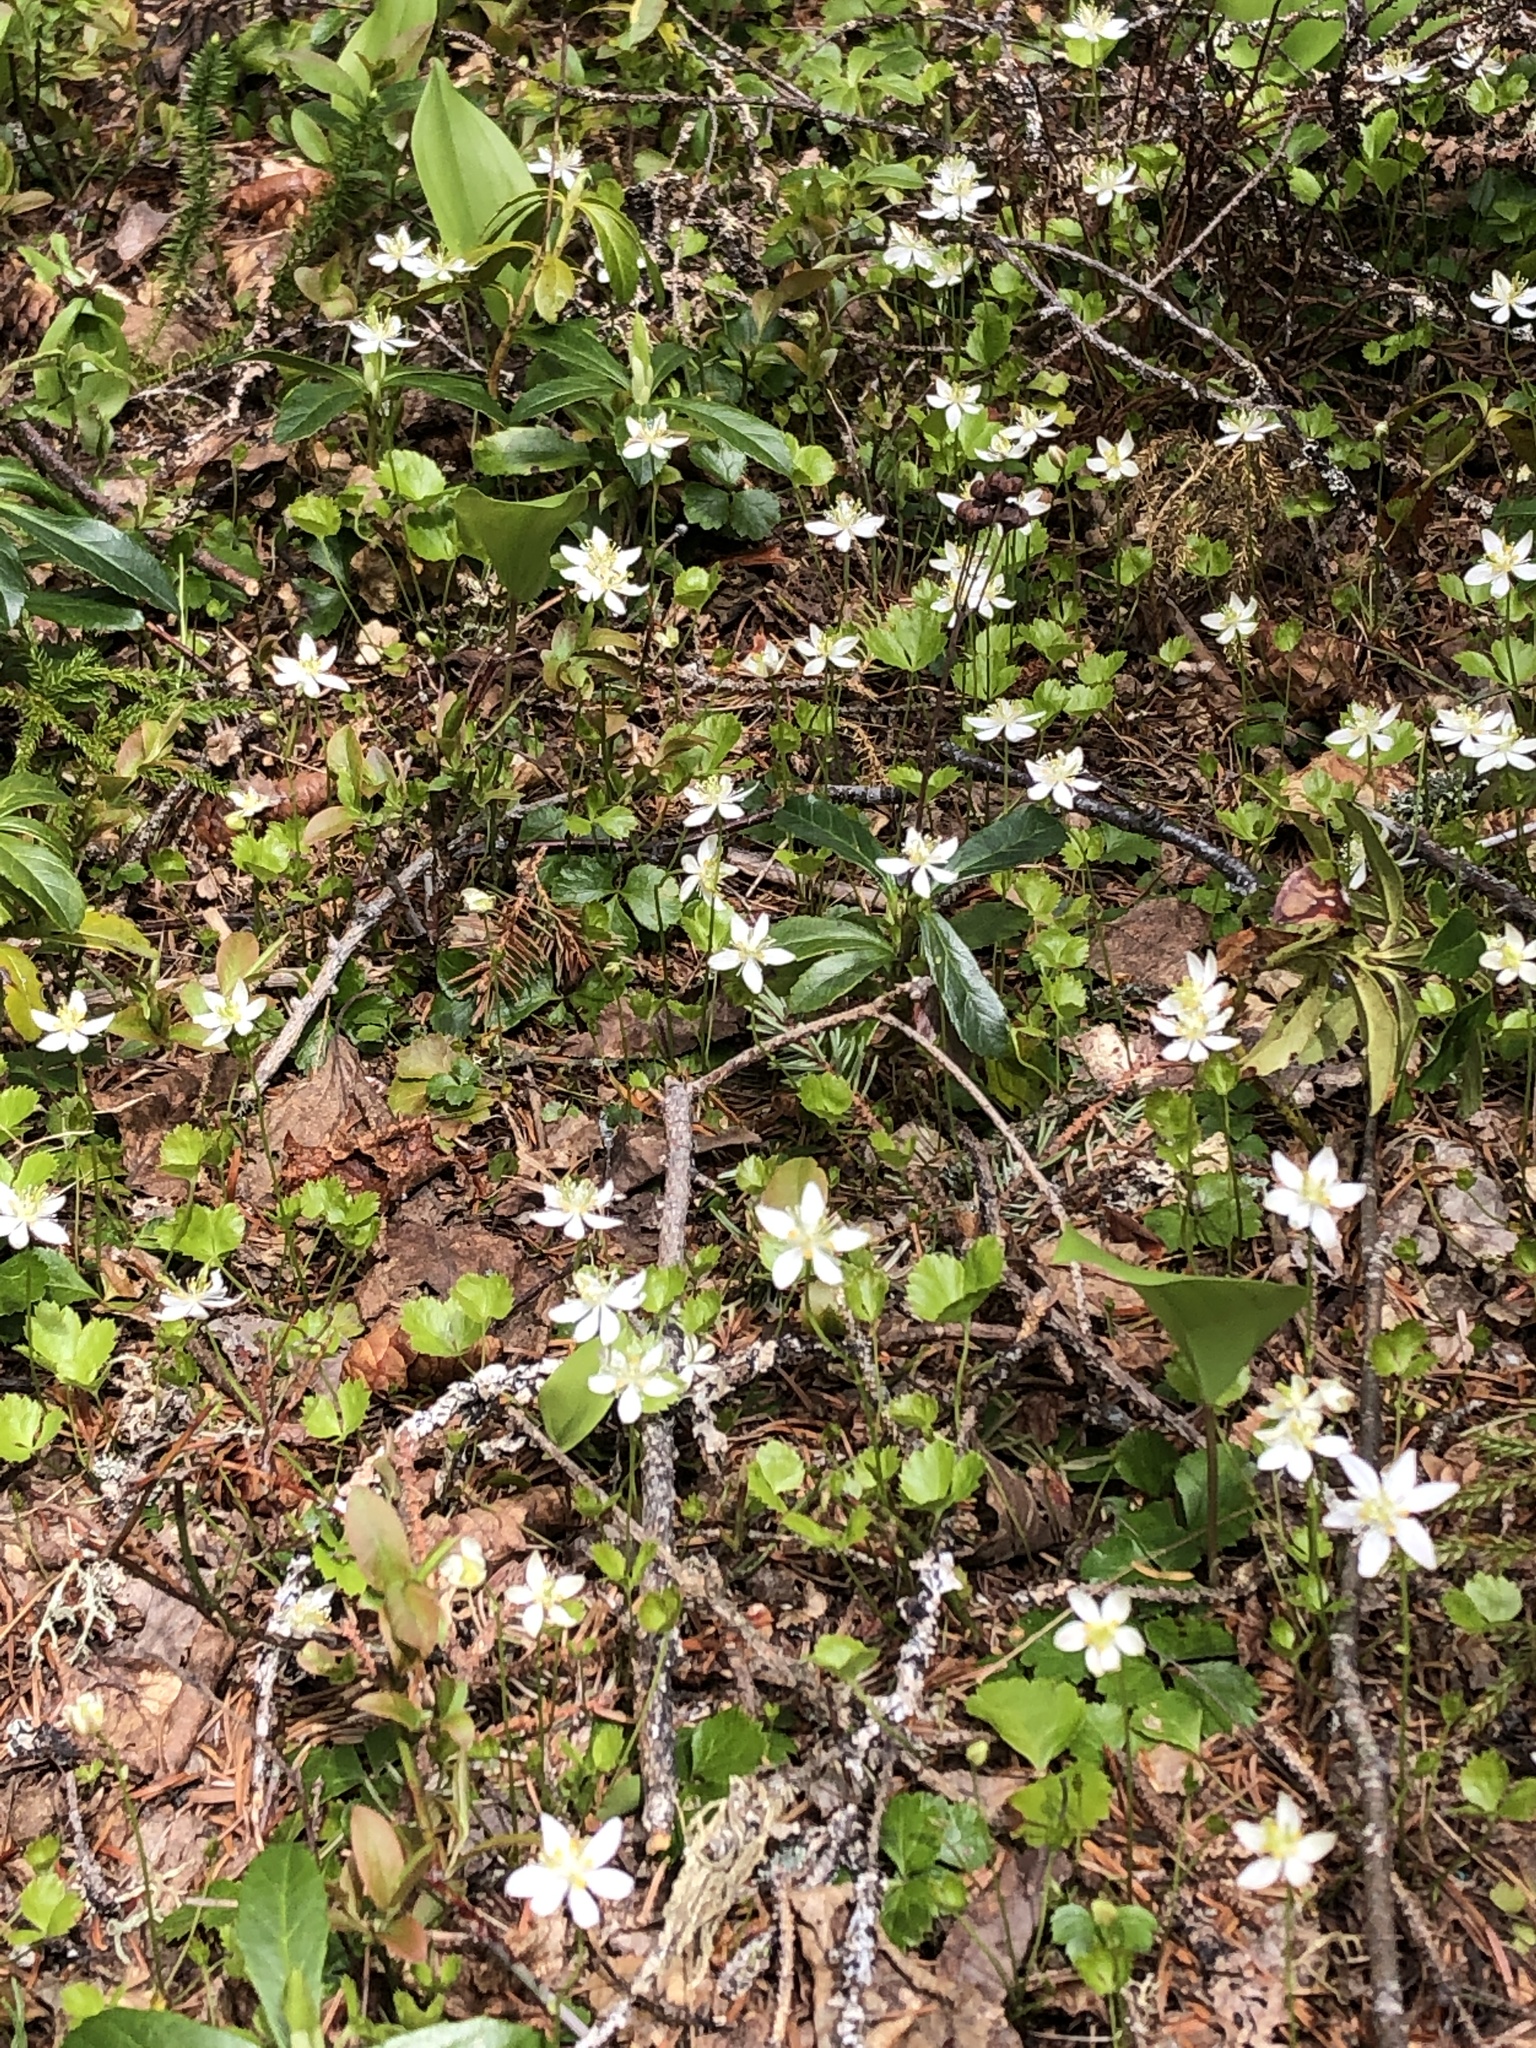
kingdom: Plantae
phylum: Tracheophyta
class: Magnoliopsida
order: Ranunculales
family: Ranunculaceae
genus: Coptis
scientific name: Coptis trifolia
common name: Canker-root
